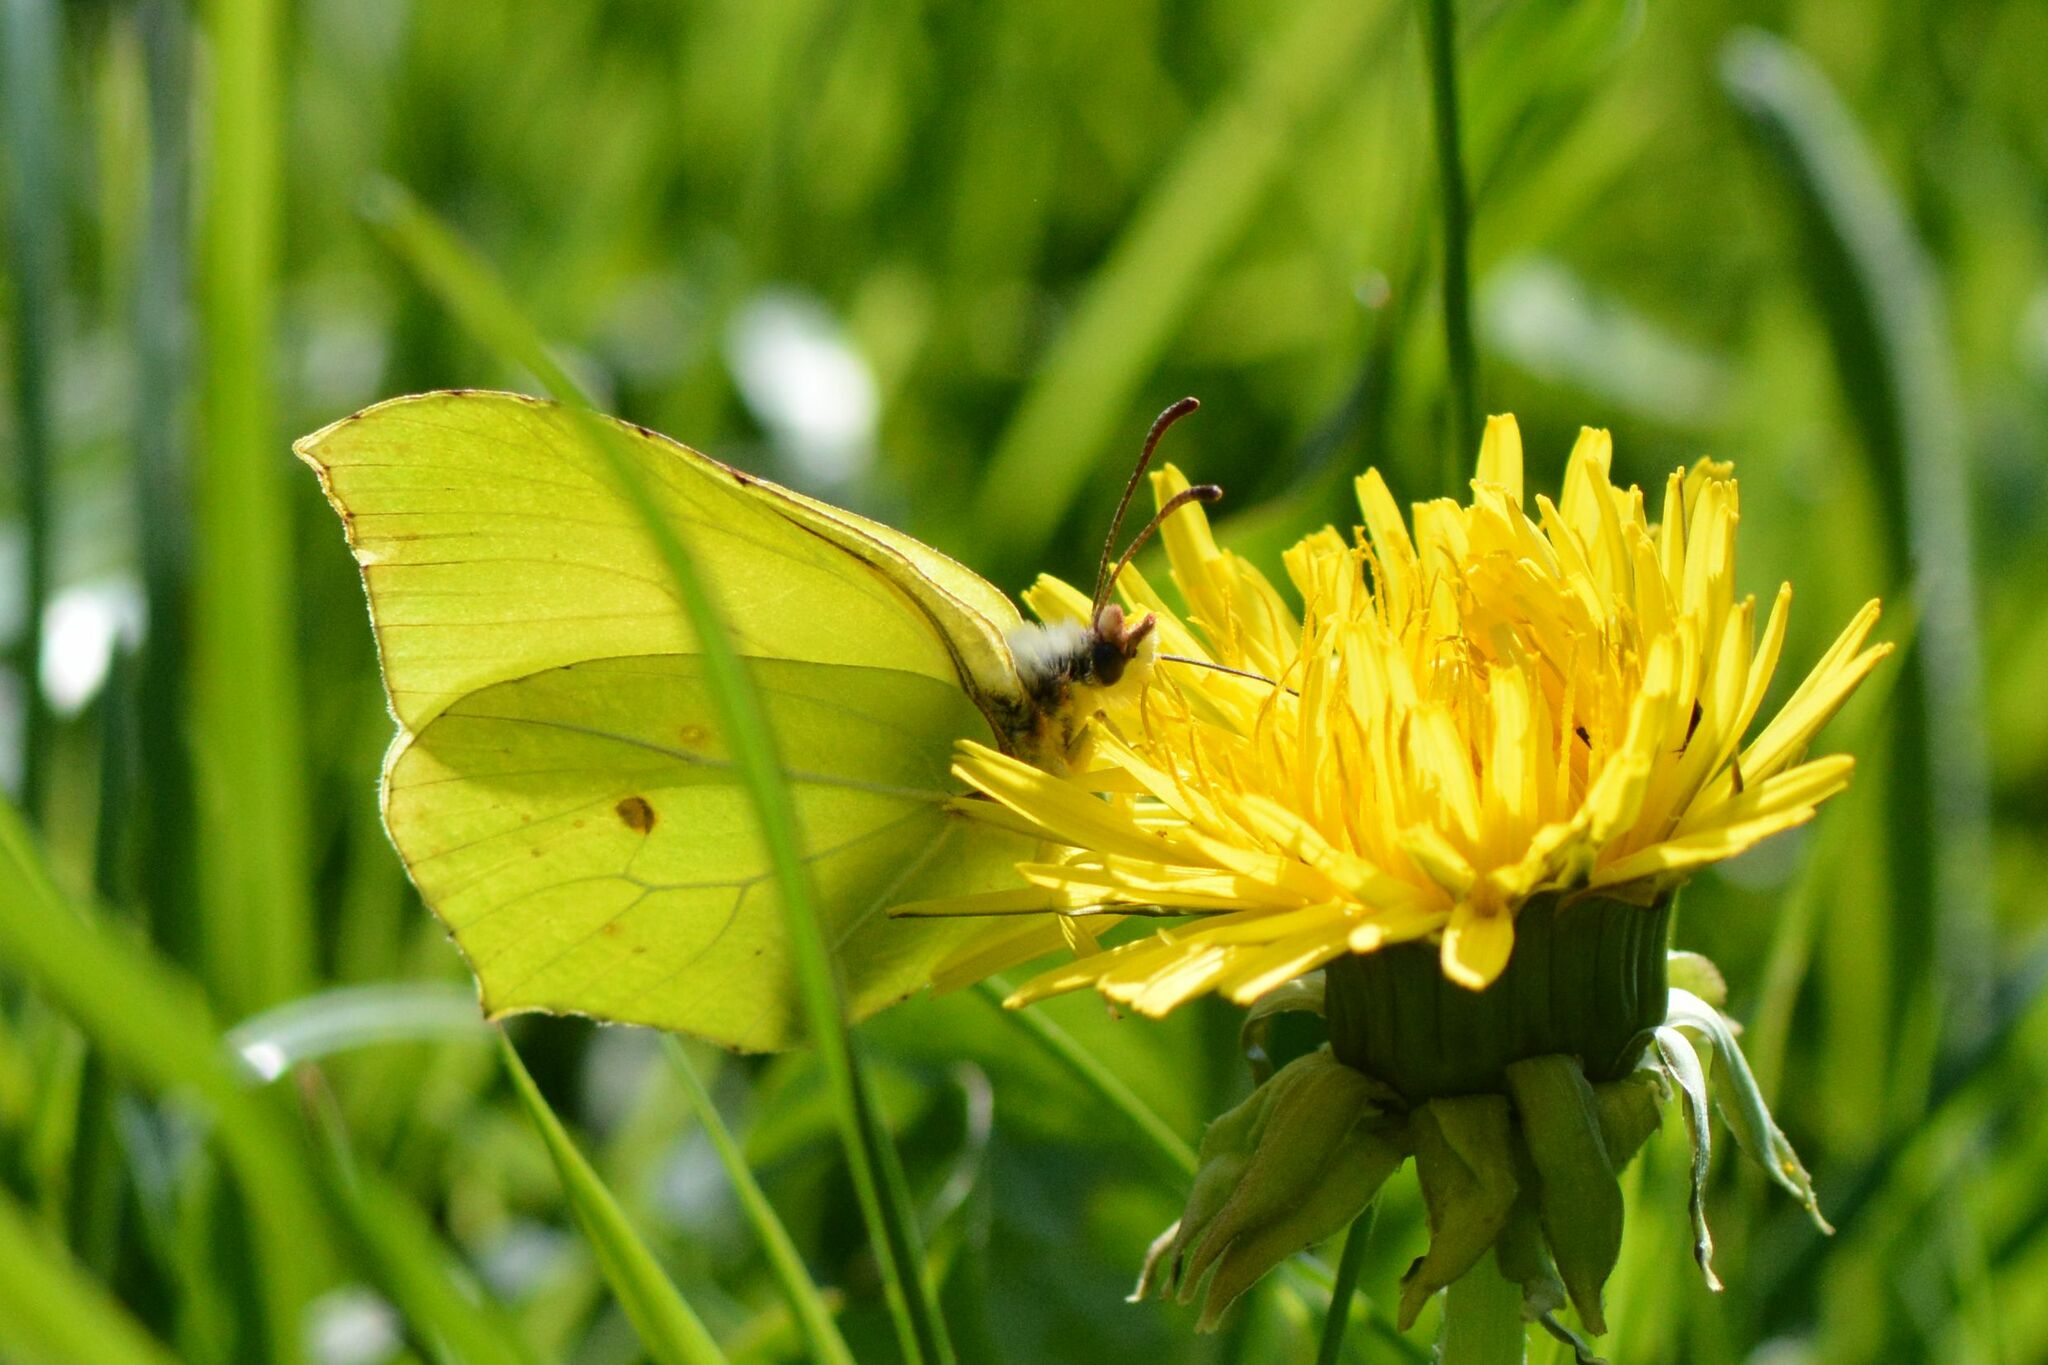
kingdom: Animalia
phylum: Arthropoda
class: Insecta
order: Lepidoptera
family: Pieridae
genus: Gonepteryx
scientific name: Gonepteryx rhamni
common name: Brimstone
